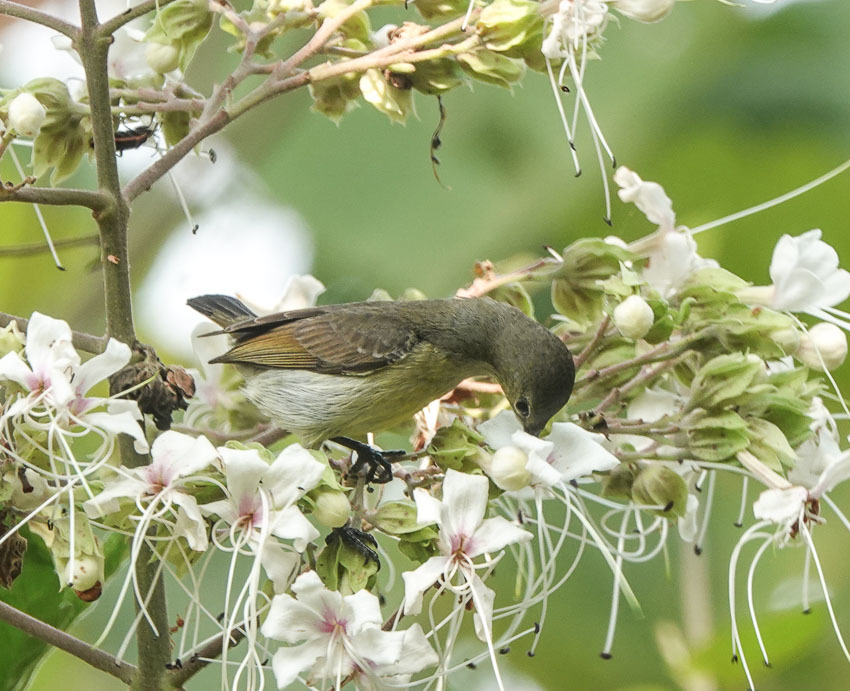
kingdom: Animalia
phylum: Chordata
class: Aves
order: Passeriformes
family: Nectariniidae
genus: Leptocoma
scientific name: Leptocoma brasiliana
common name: Van hasselt's sunbird
